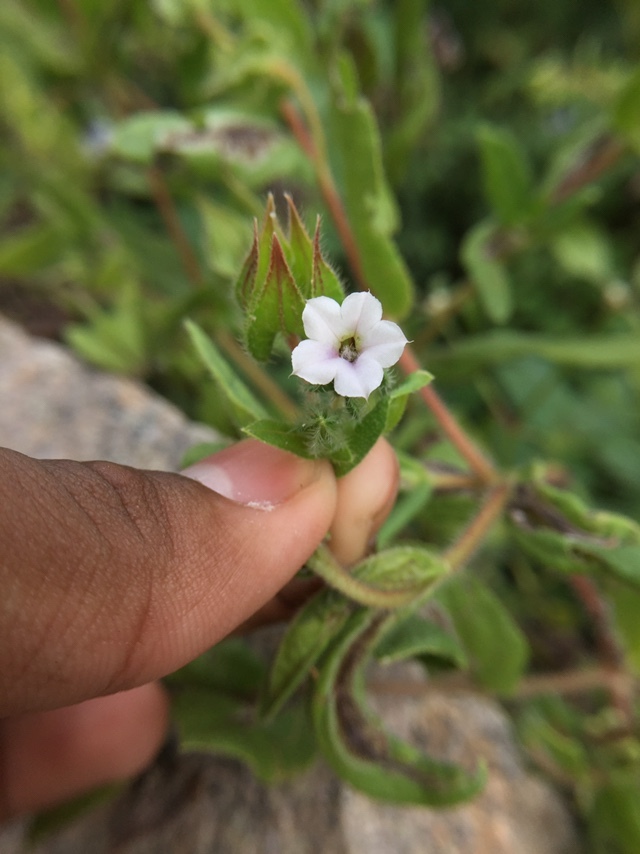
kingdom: Plantae
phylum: Tracheophyta
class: Magnoliopsida
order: Boraginales
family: Boraginaceae
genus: Trichodesma
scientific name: Trichodesma indicum
